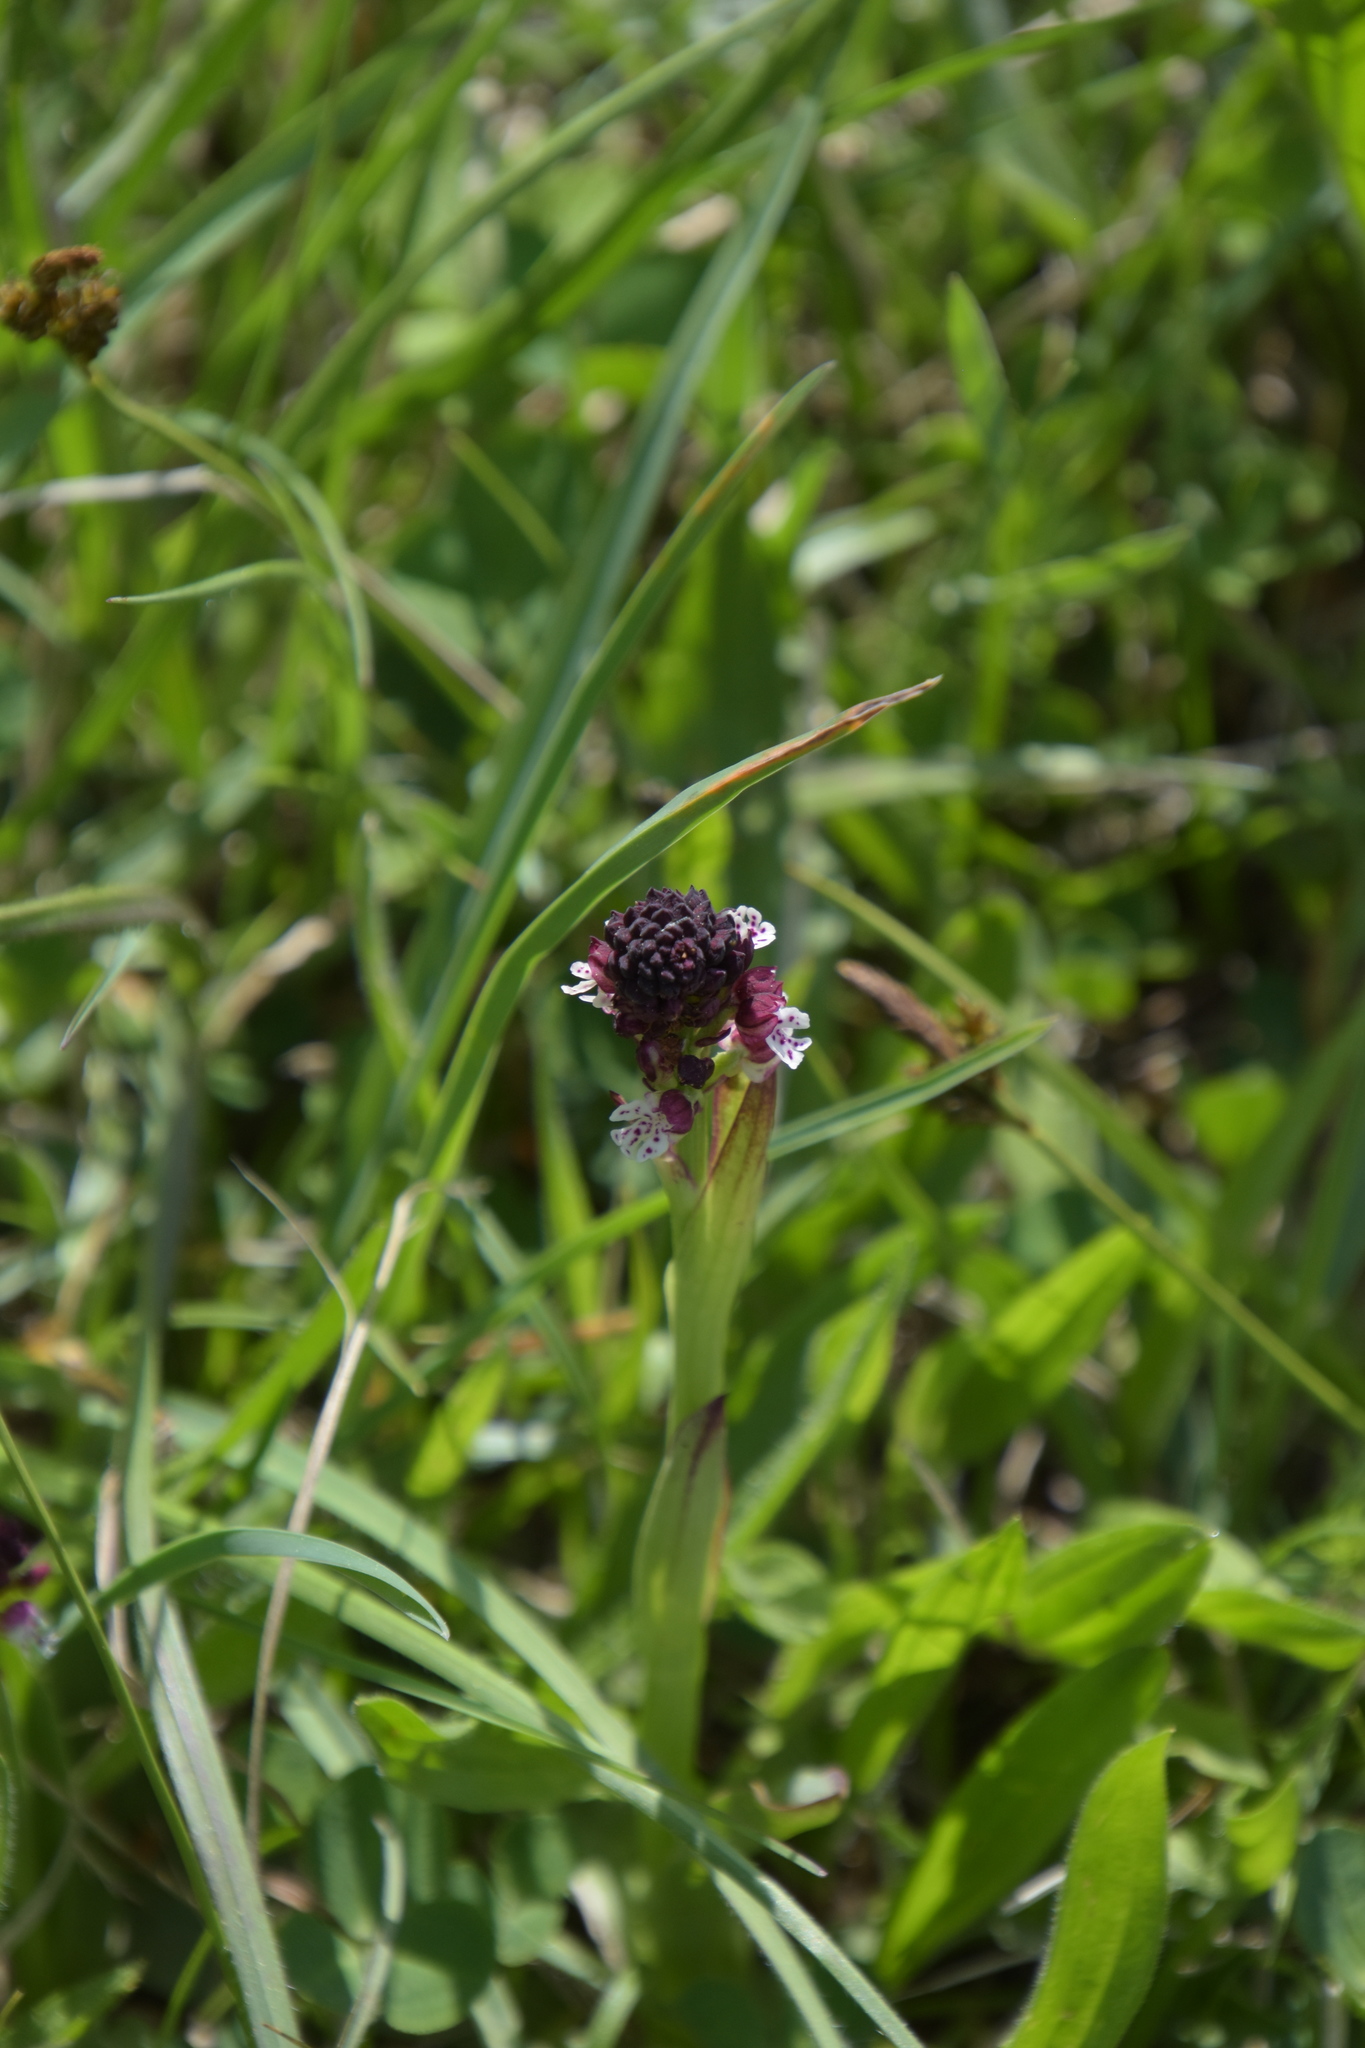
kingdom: Plantae
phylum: Tracheophyta
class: Liliopsida
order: Asparagales
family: Orchidaceae
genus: Neotinea
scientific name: Neotinea ustulata
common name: Burnt orchid
